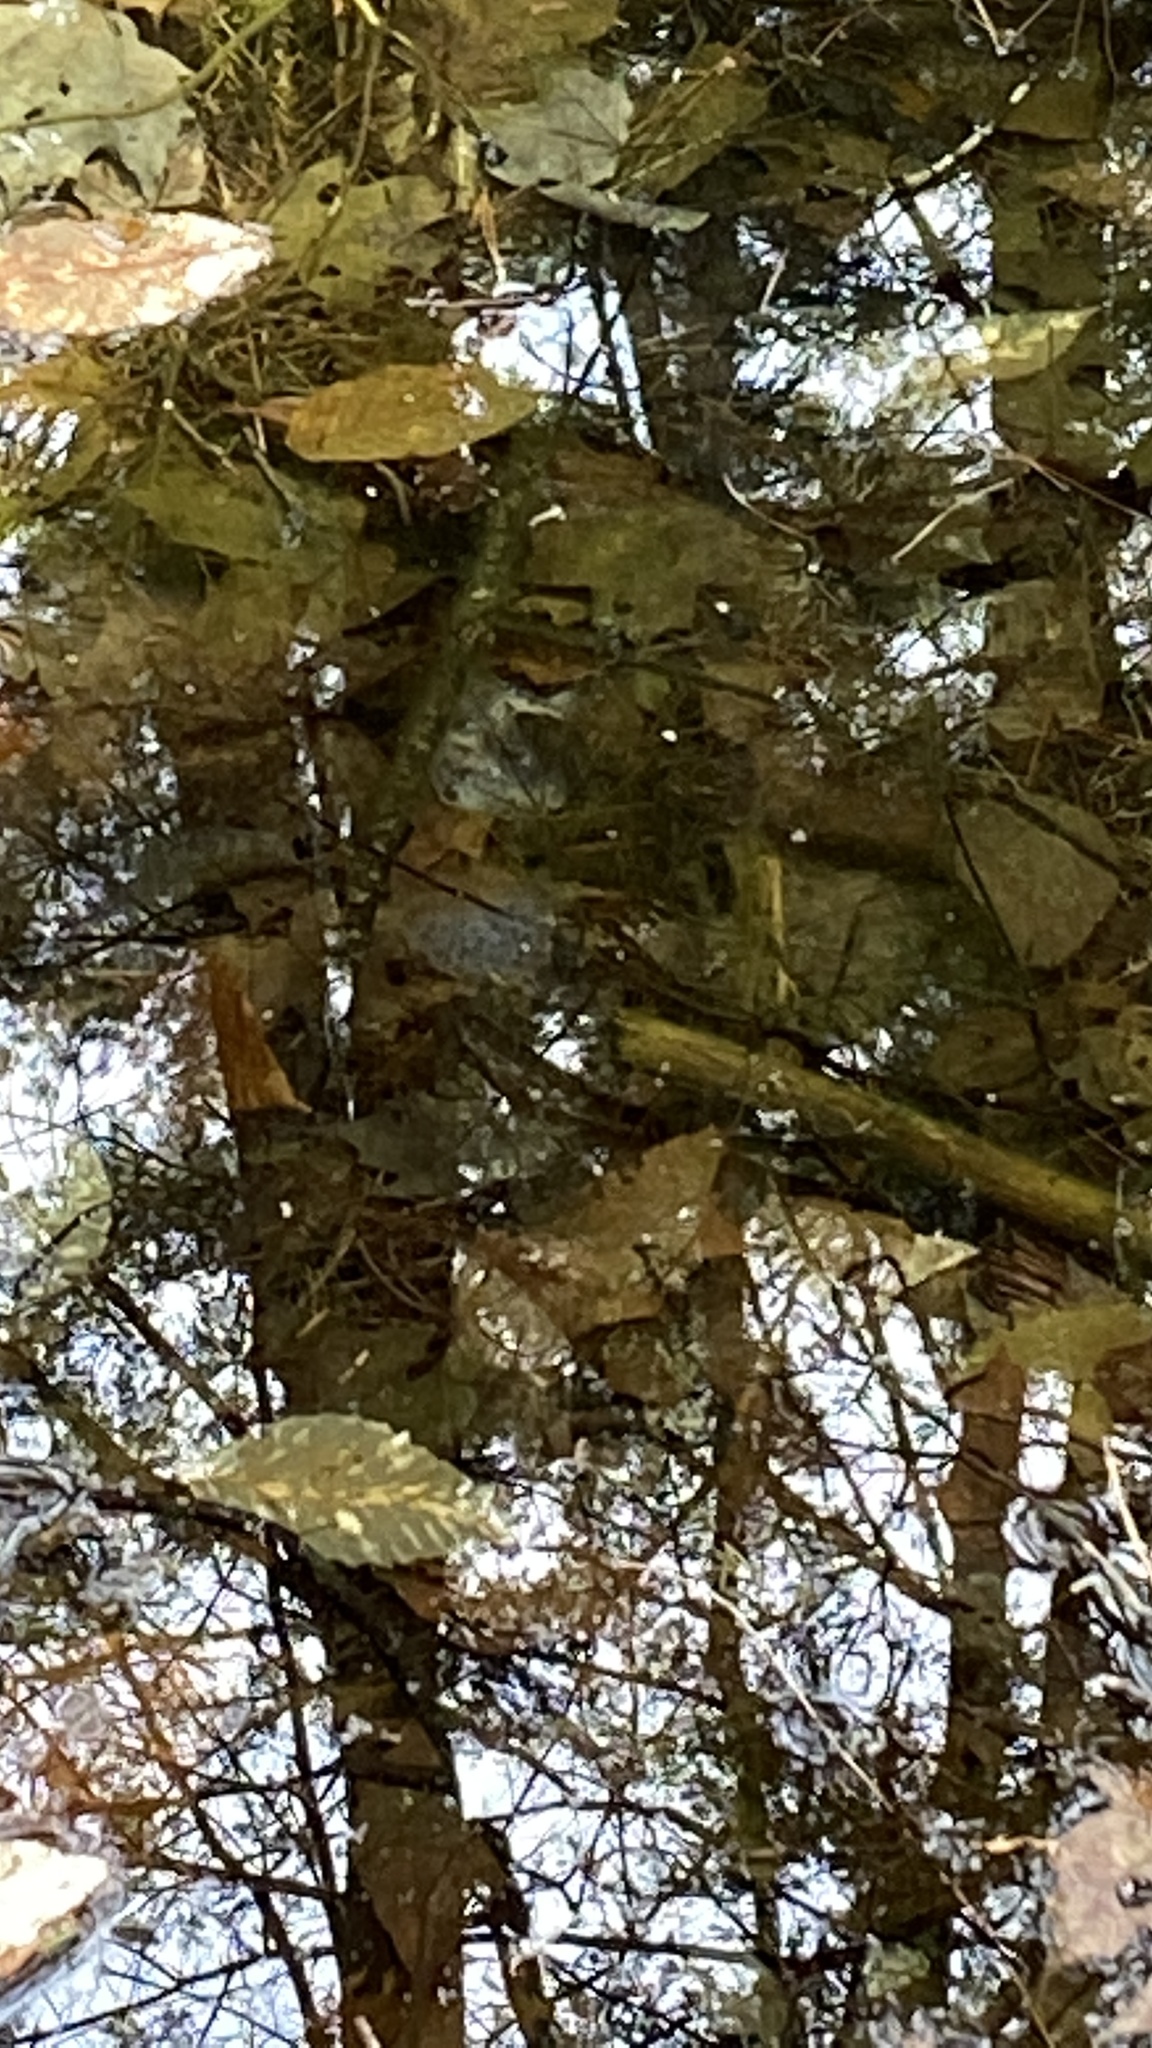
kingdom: Animalia
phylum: Chordata
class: Amphibia
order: Caudata
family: Ambystomatidae
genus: Ambystoma
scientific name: Ambystoma maculatum
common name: Spotted salamander
